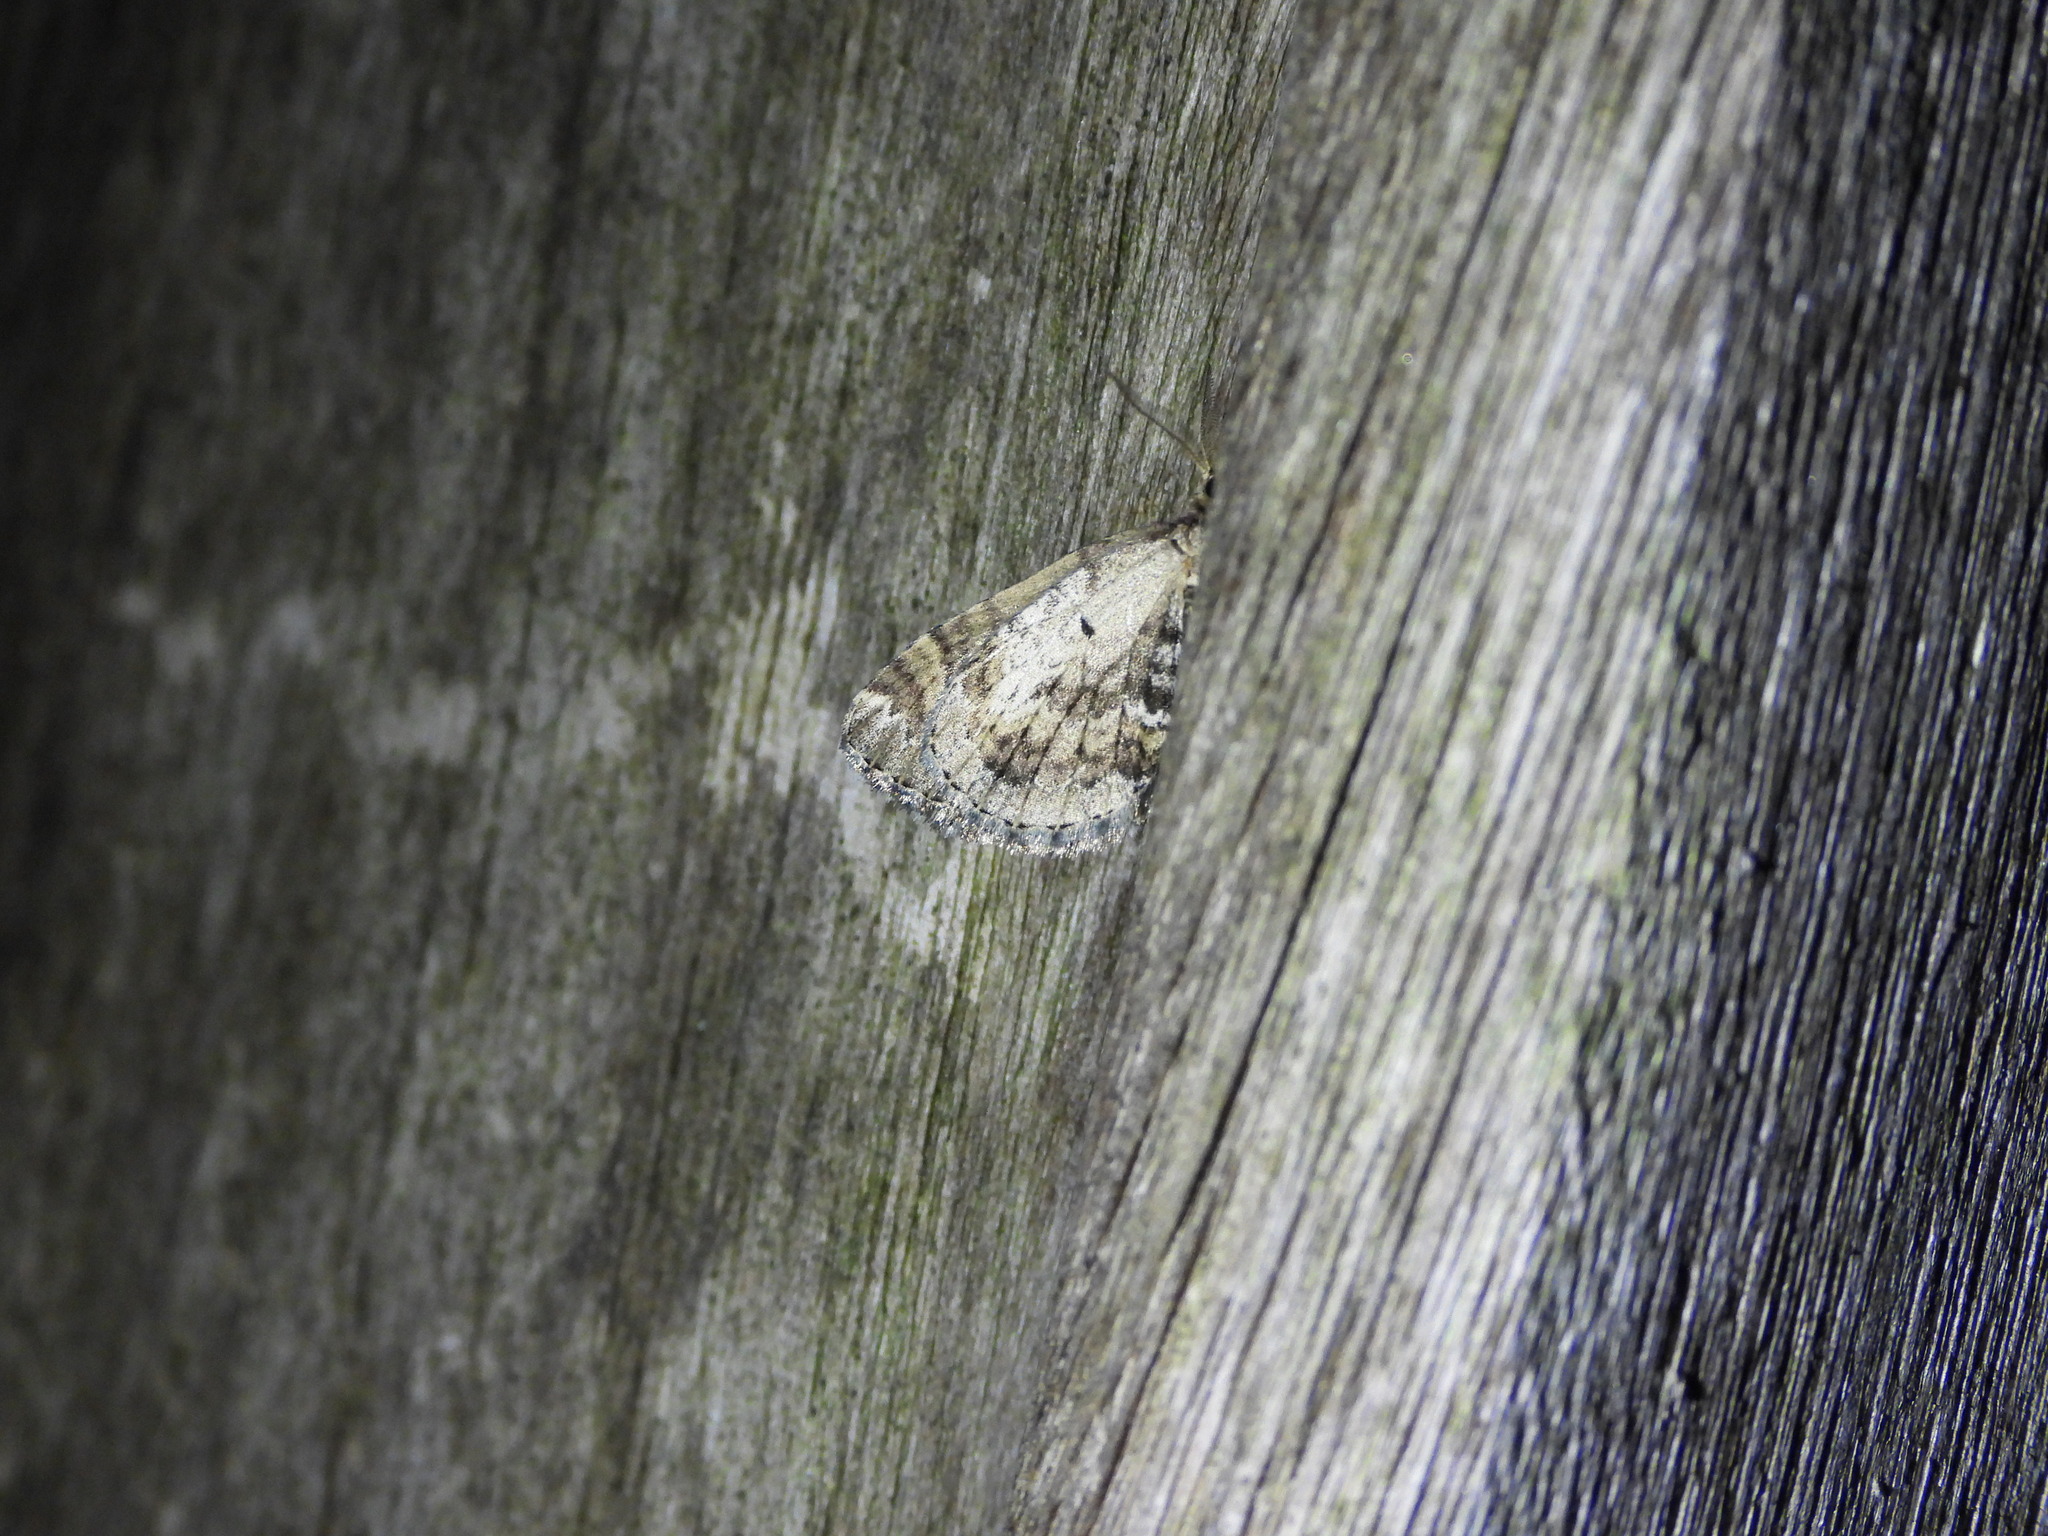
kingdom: Animalia
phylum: Arthropoda
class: Insecta
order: Lepidoptera
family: Geometridae
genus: Asaphodes
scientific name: Asaphodes aegrota
